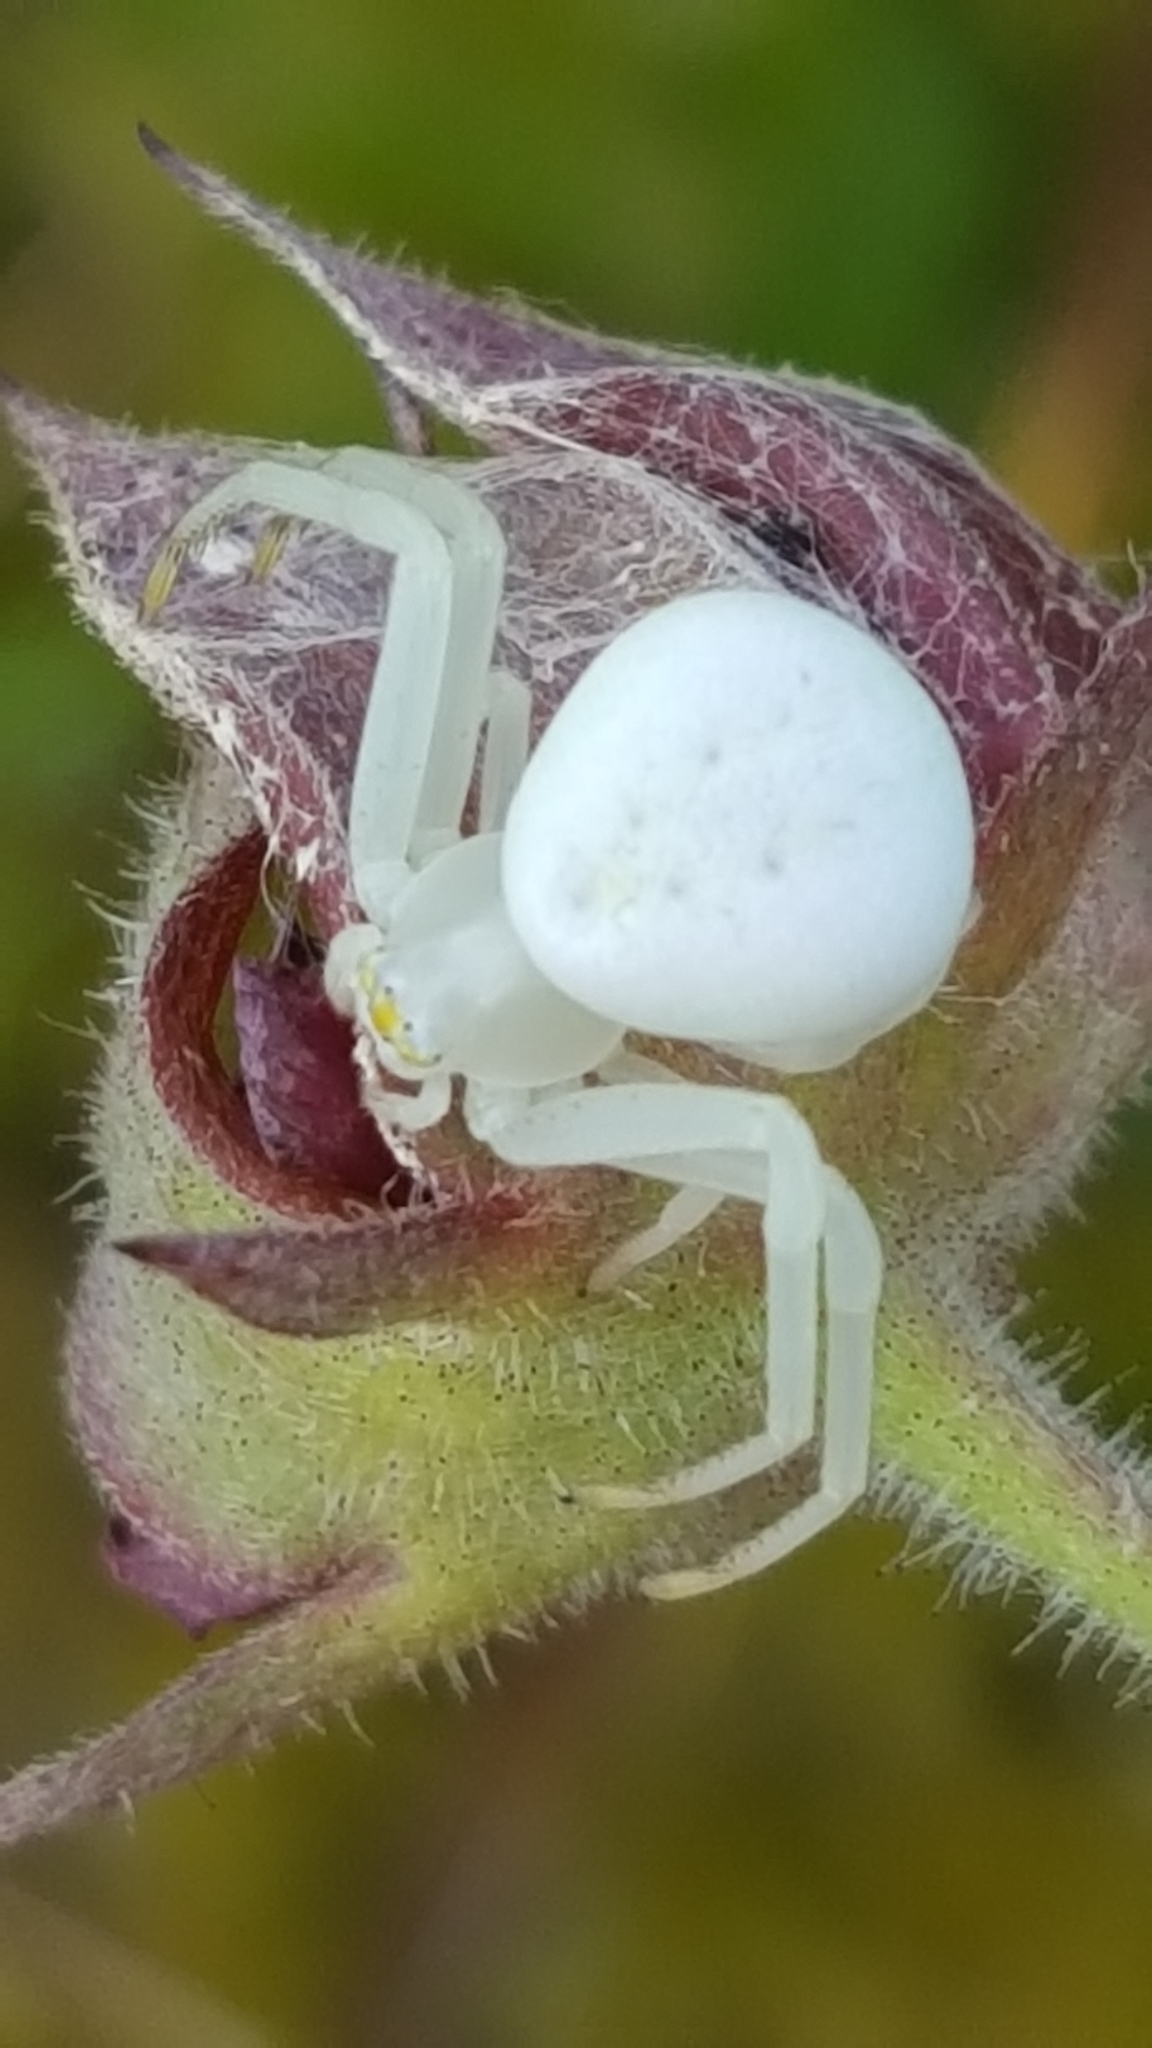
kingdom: Animalia
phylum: Arthropoda
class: Arachnida
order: Araneae
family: Thomisidae
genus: Misumena
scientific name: Misumena vatia
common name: Goldenrod crab spider
